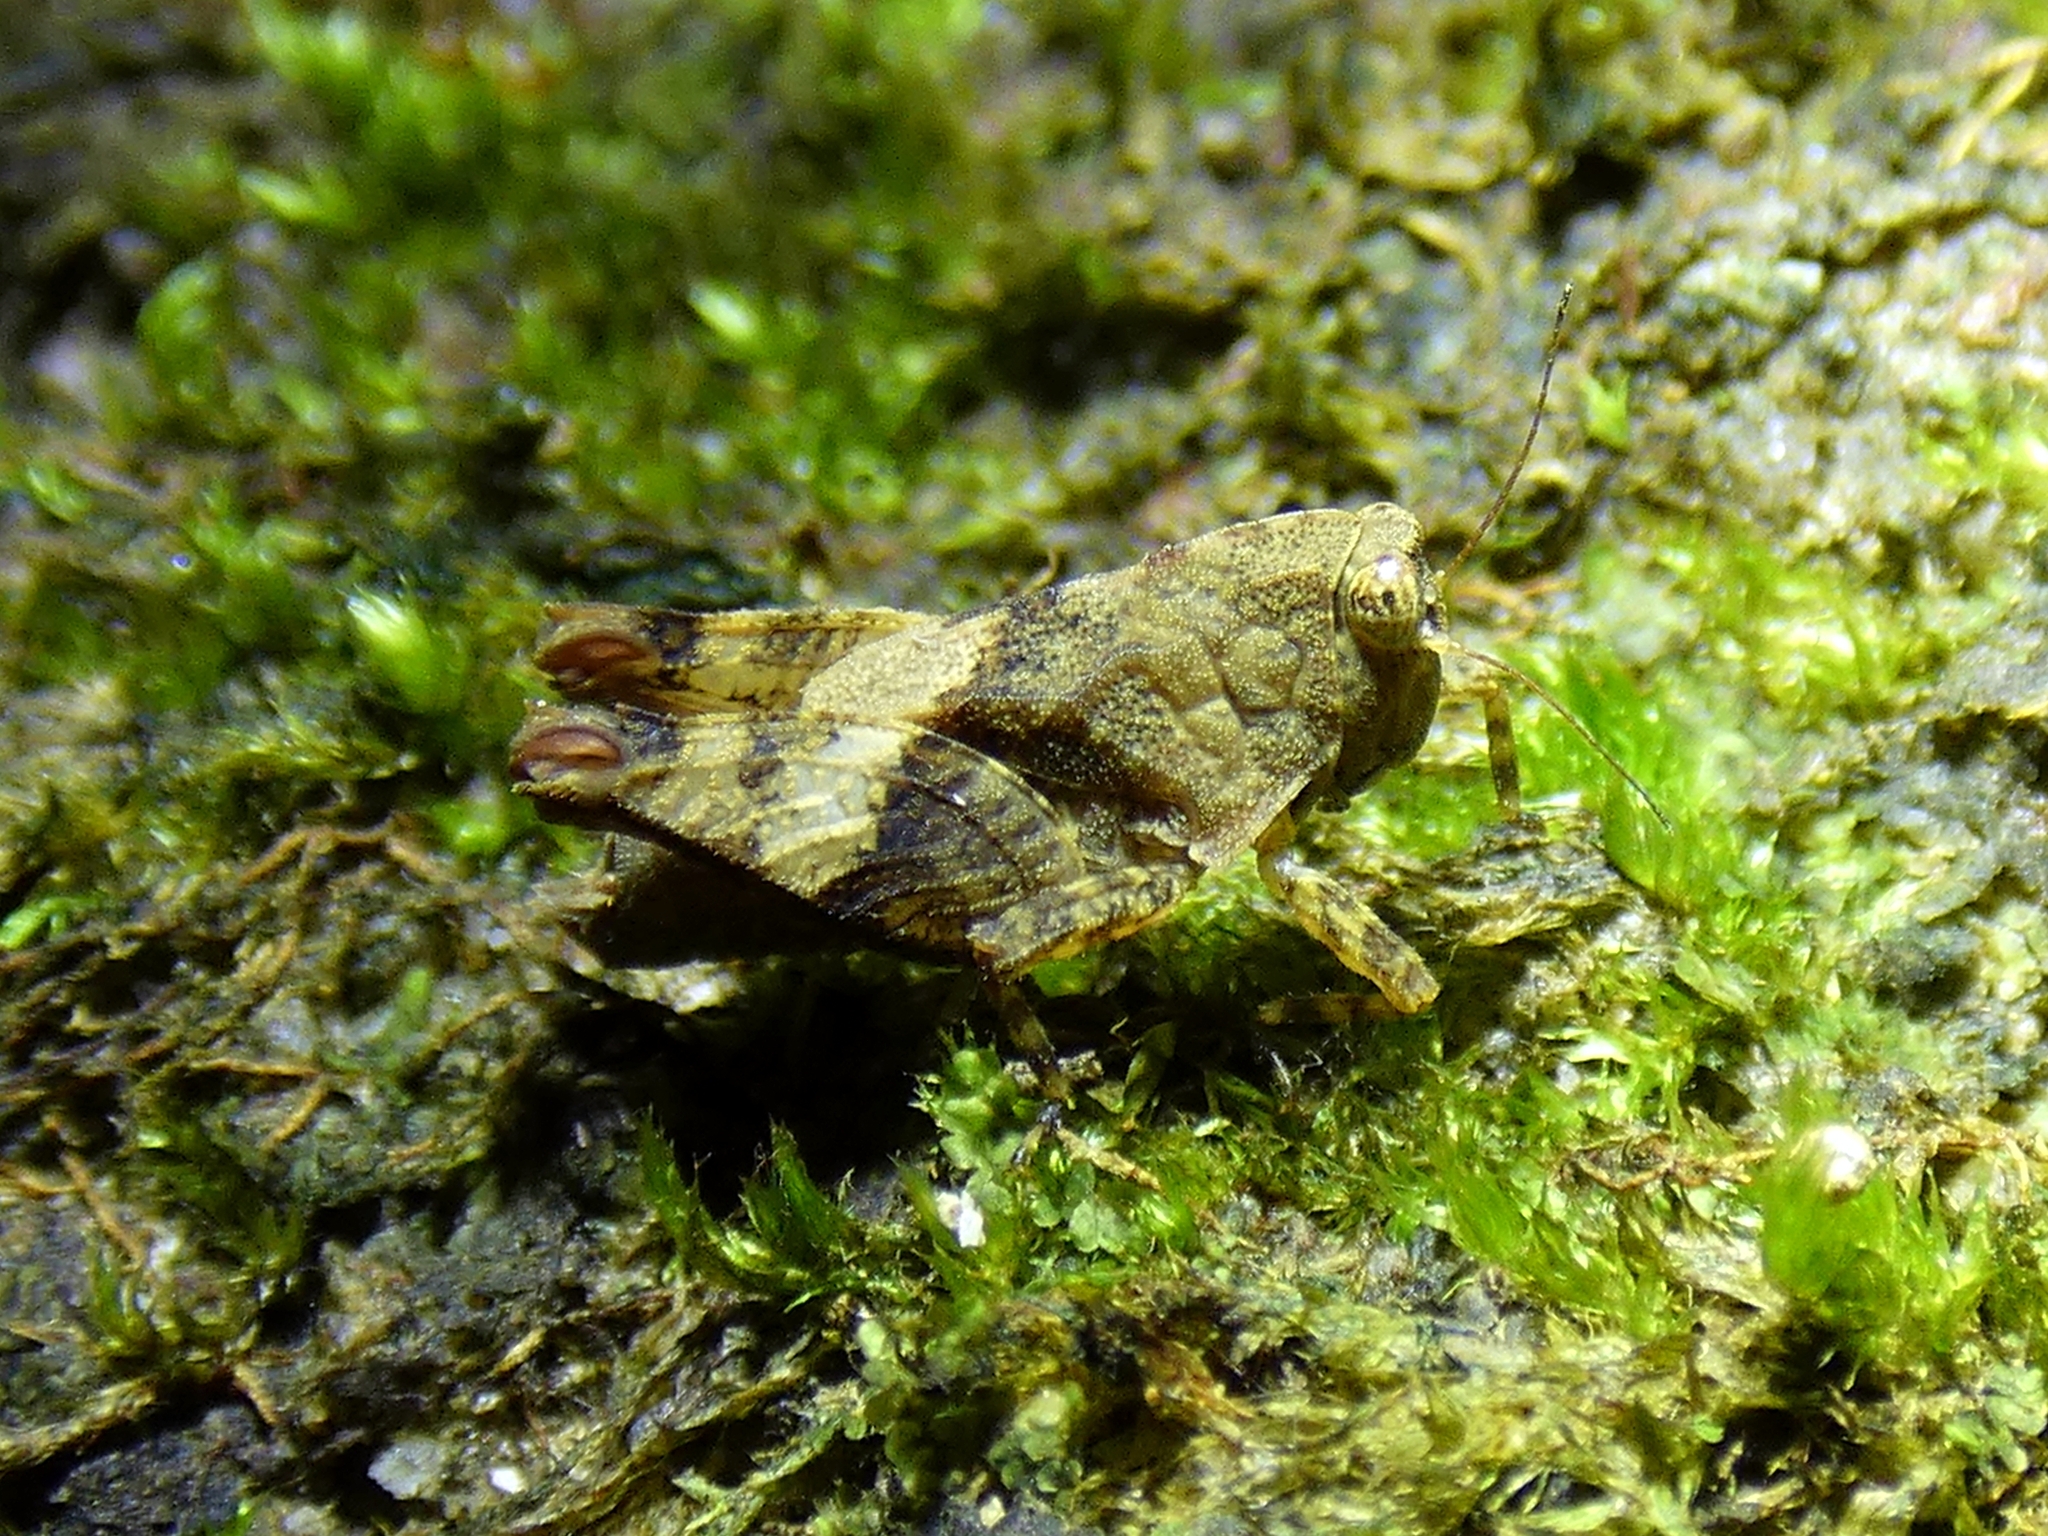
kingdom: Animalia
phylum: Arthropoda
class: Insecta
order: Orthoptera
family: Tetrigidae
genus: Anaselina
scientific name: Anaselina minor
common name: Tiny helmed groundhopper
